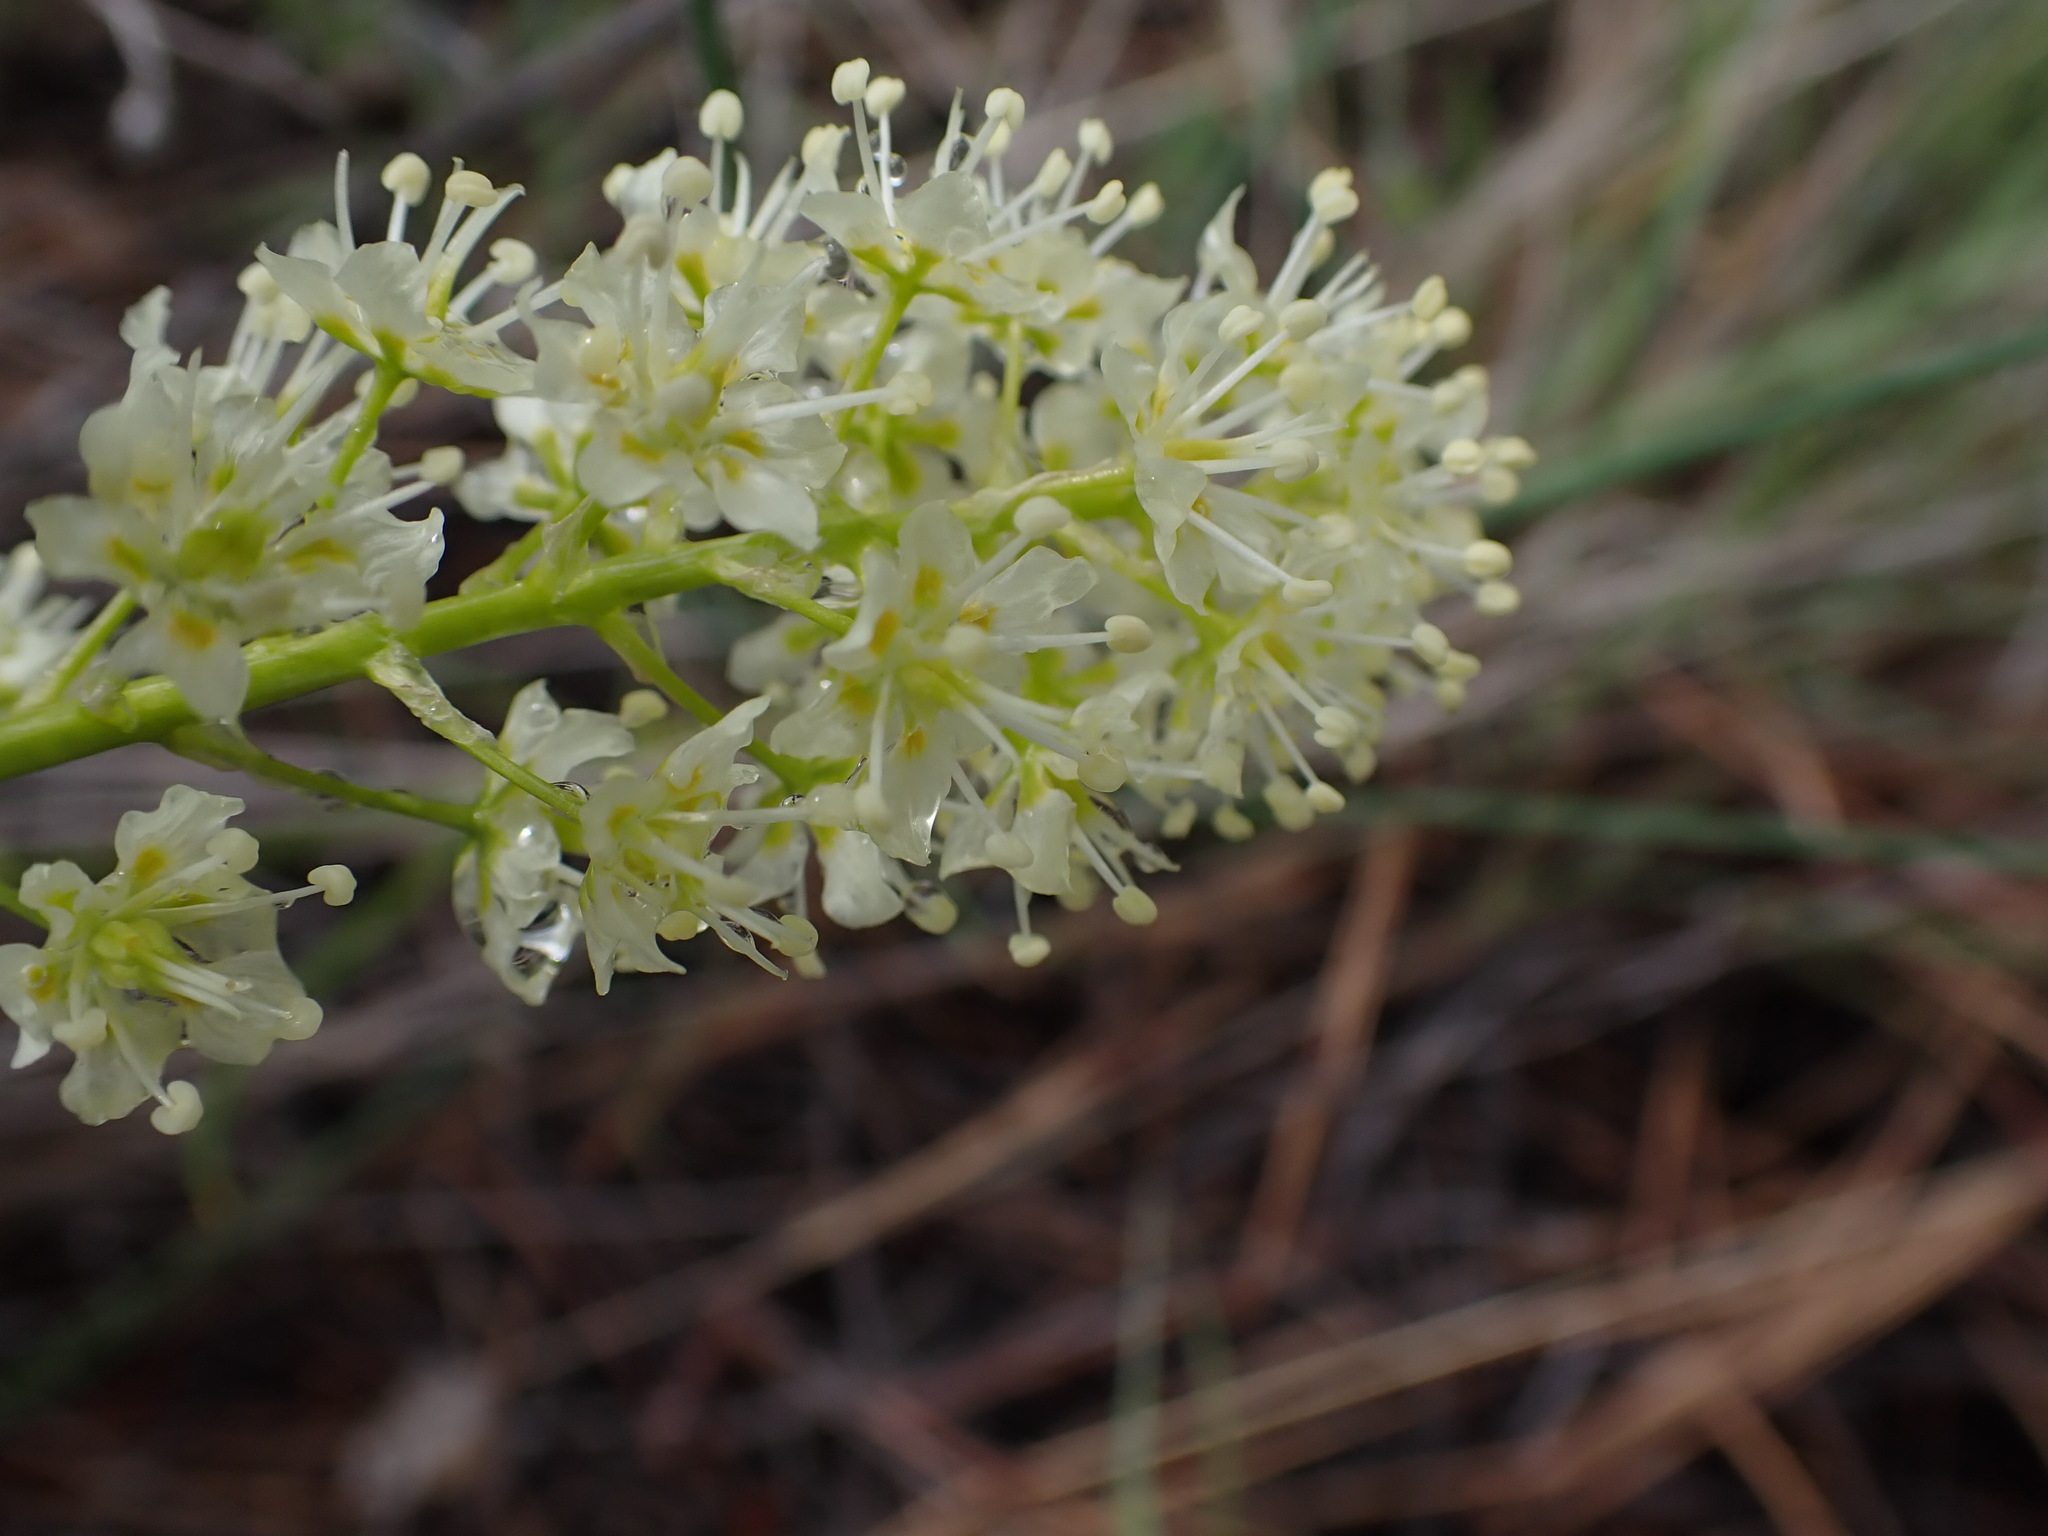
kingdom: Plantae
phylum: Tracheophyta
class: Liliopsida
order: Liliales
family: Melanthiaceae
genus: Toxicoscordion
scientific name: Toxicoscordion venenosum
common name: Meadow death camas
